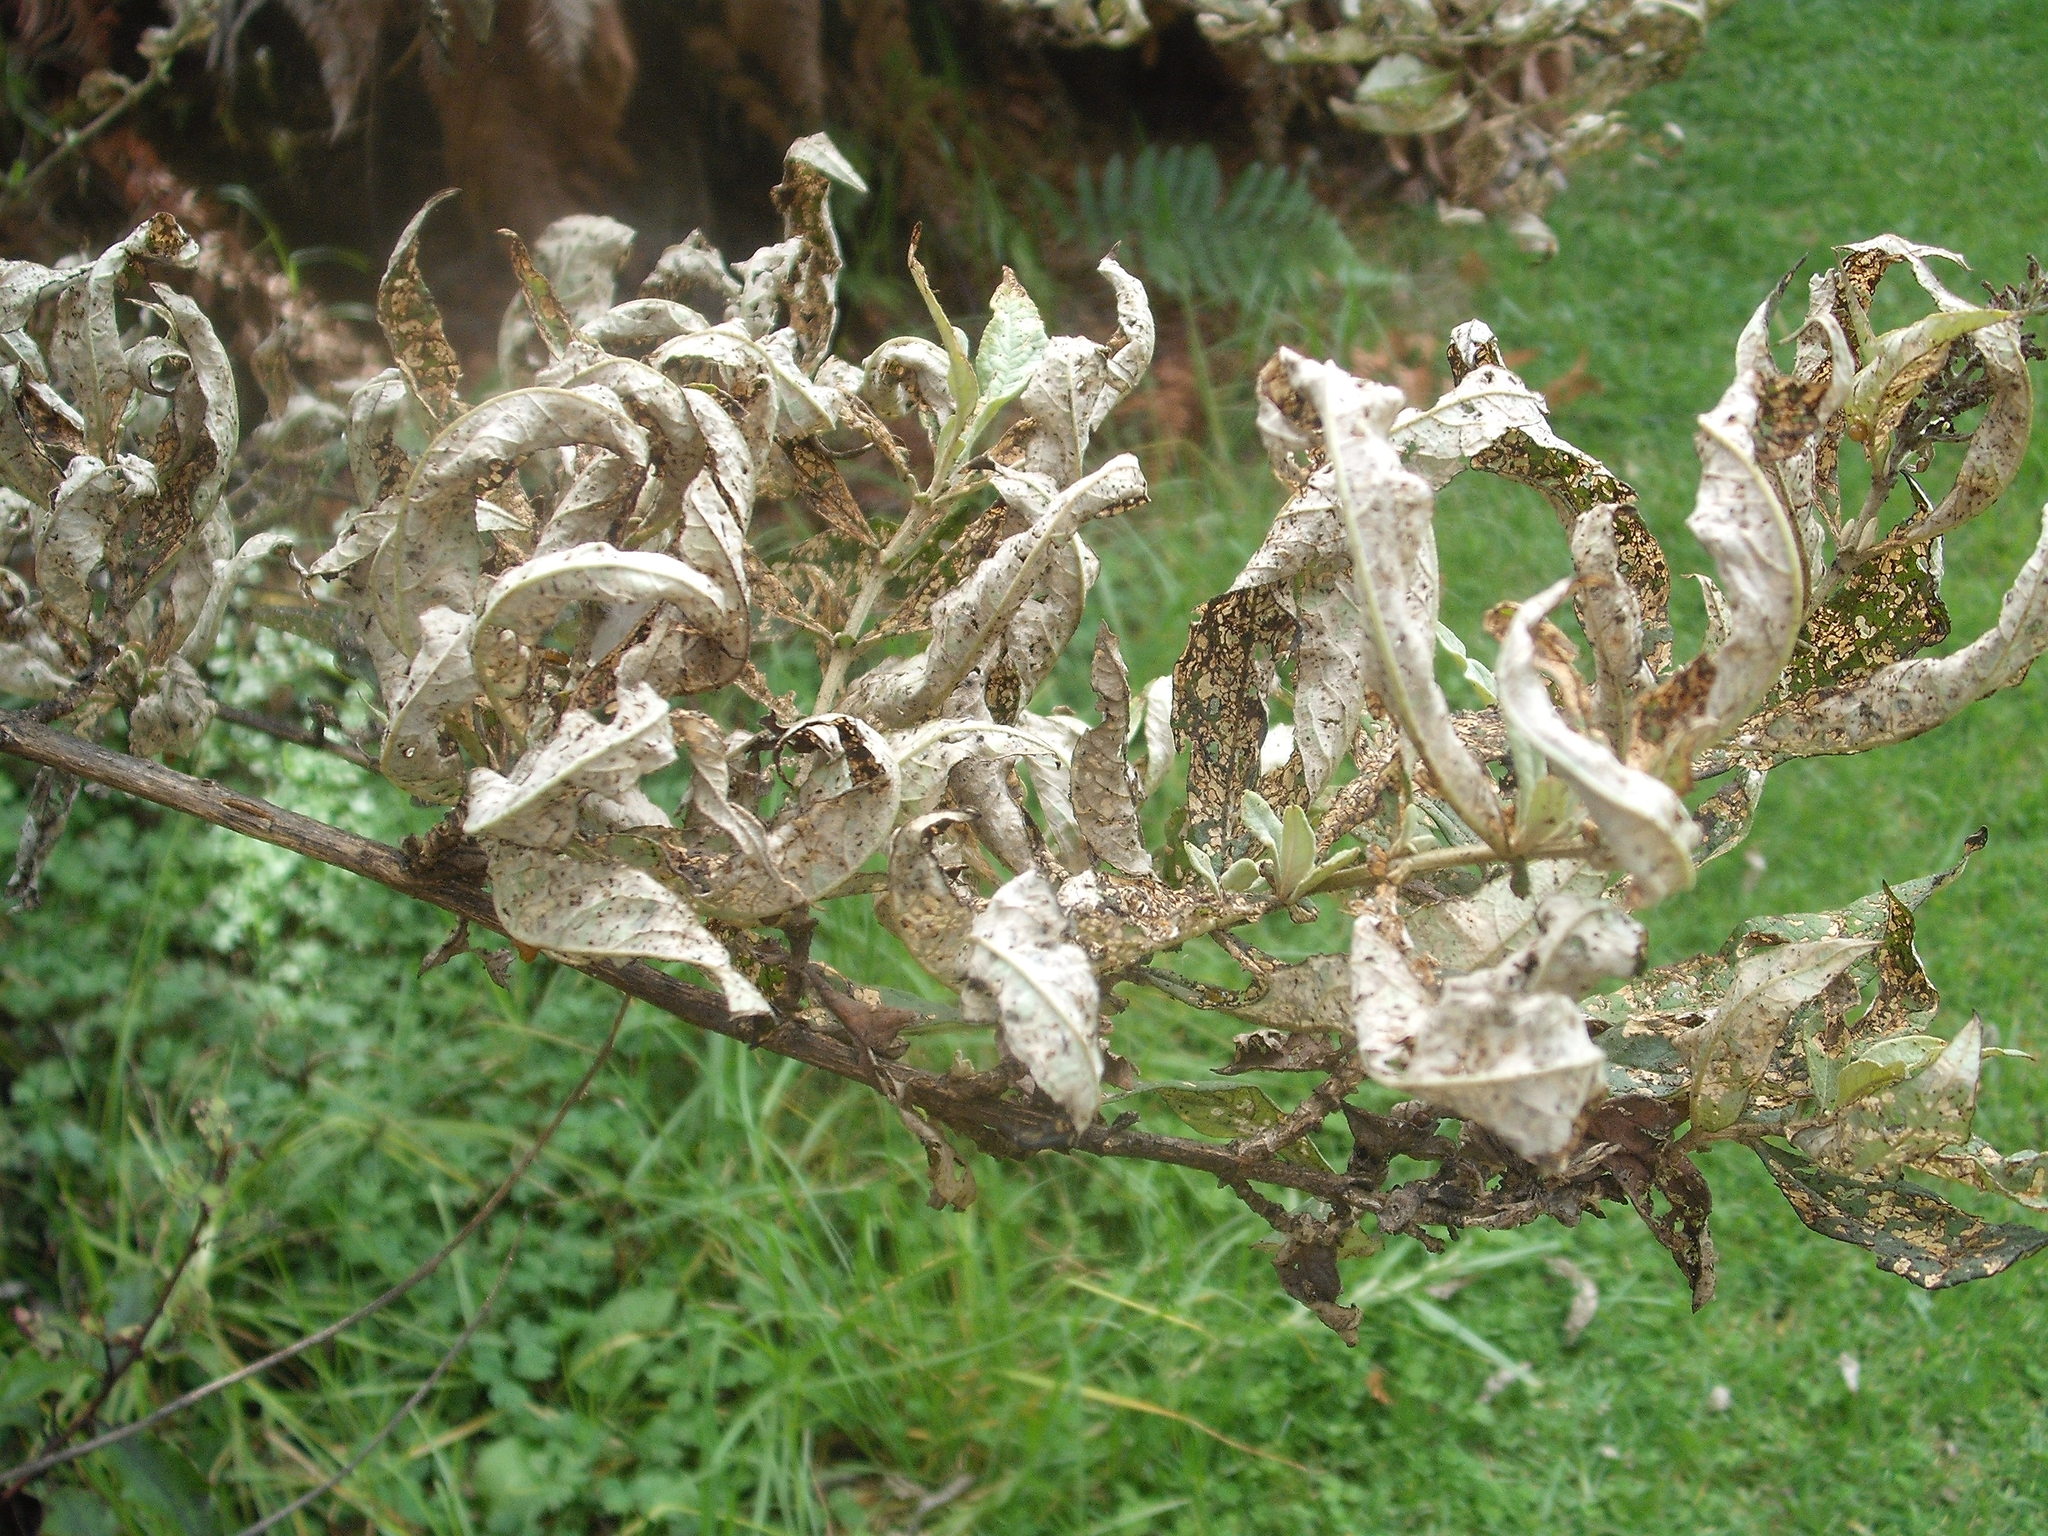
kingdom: Animalia
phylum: Arthropoda
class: Insecta
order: Coleoptera
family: Curculionidae
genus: Cleopus
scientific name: Cleopus japonicus
